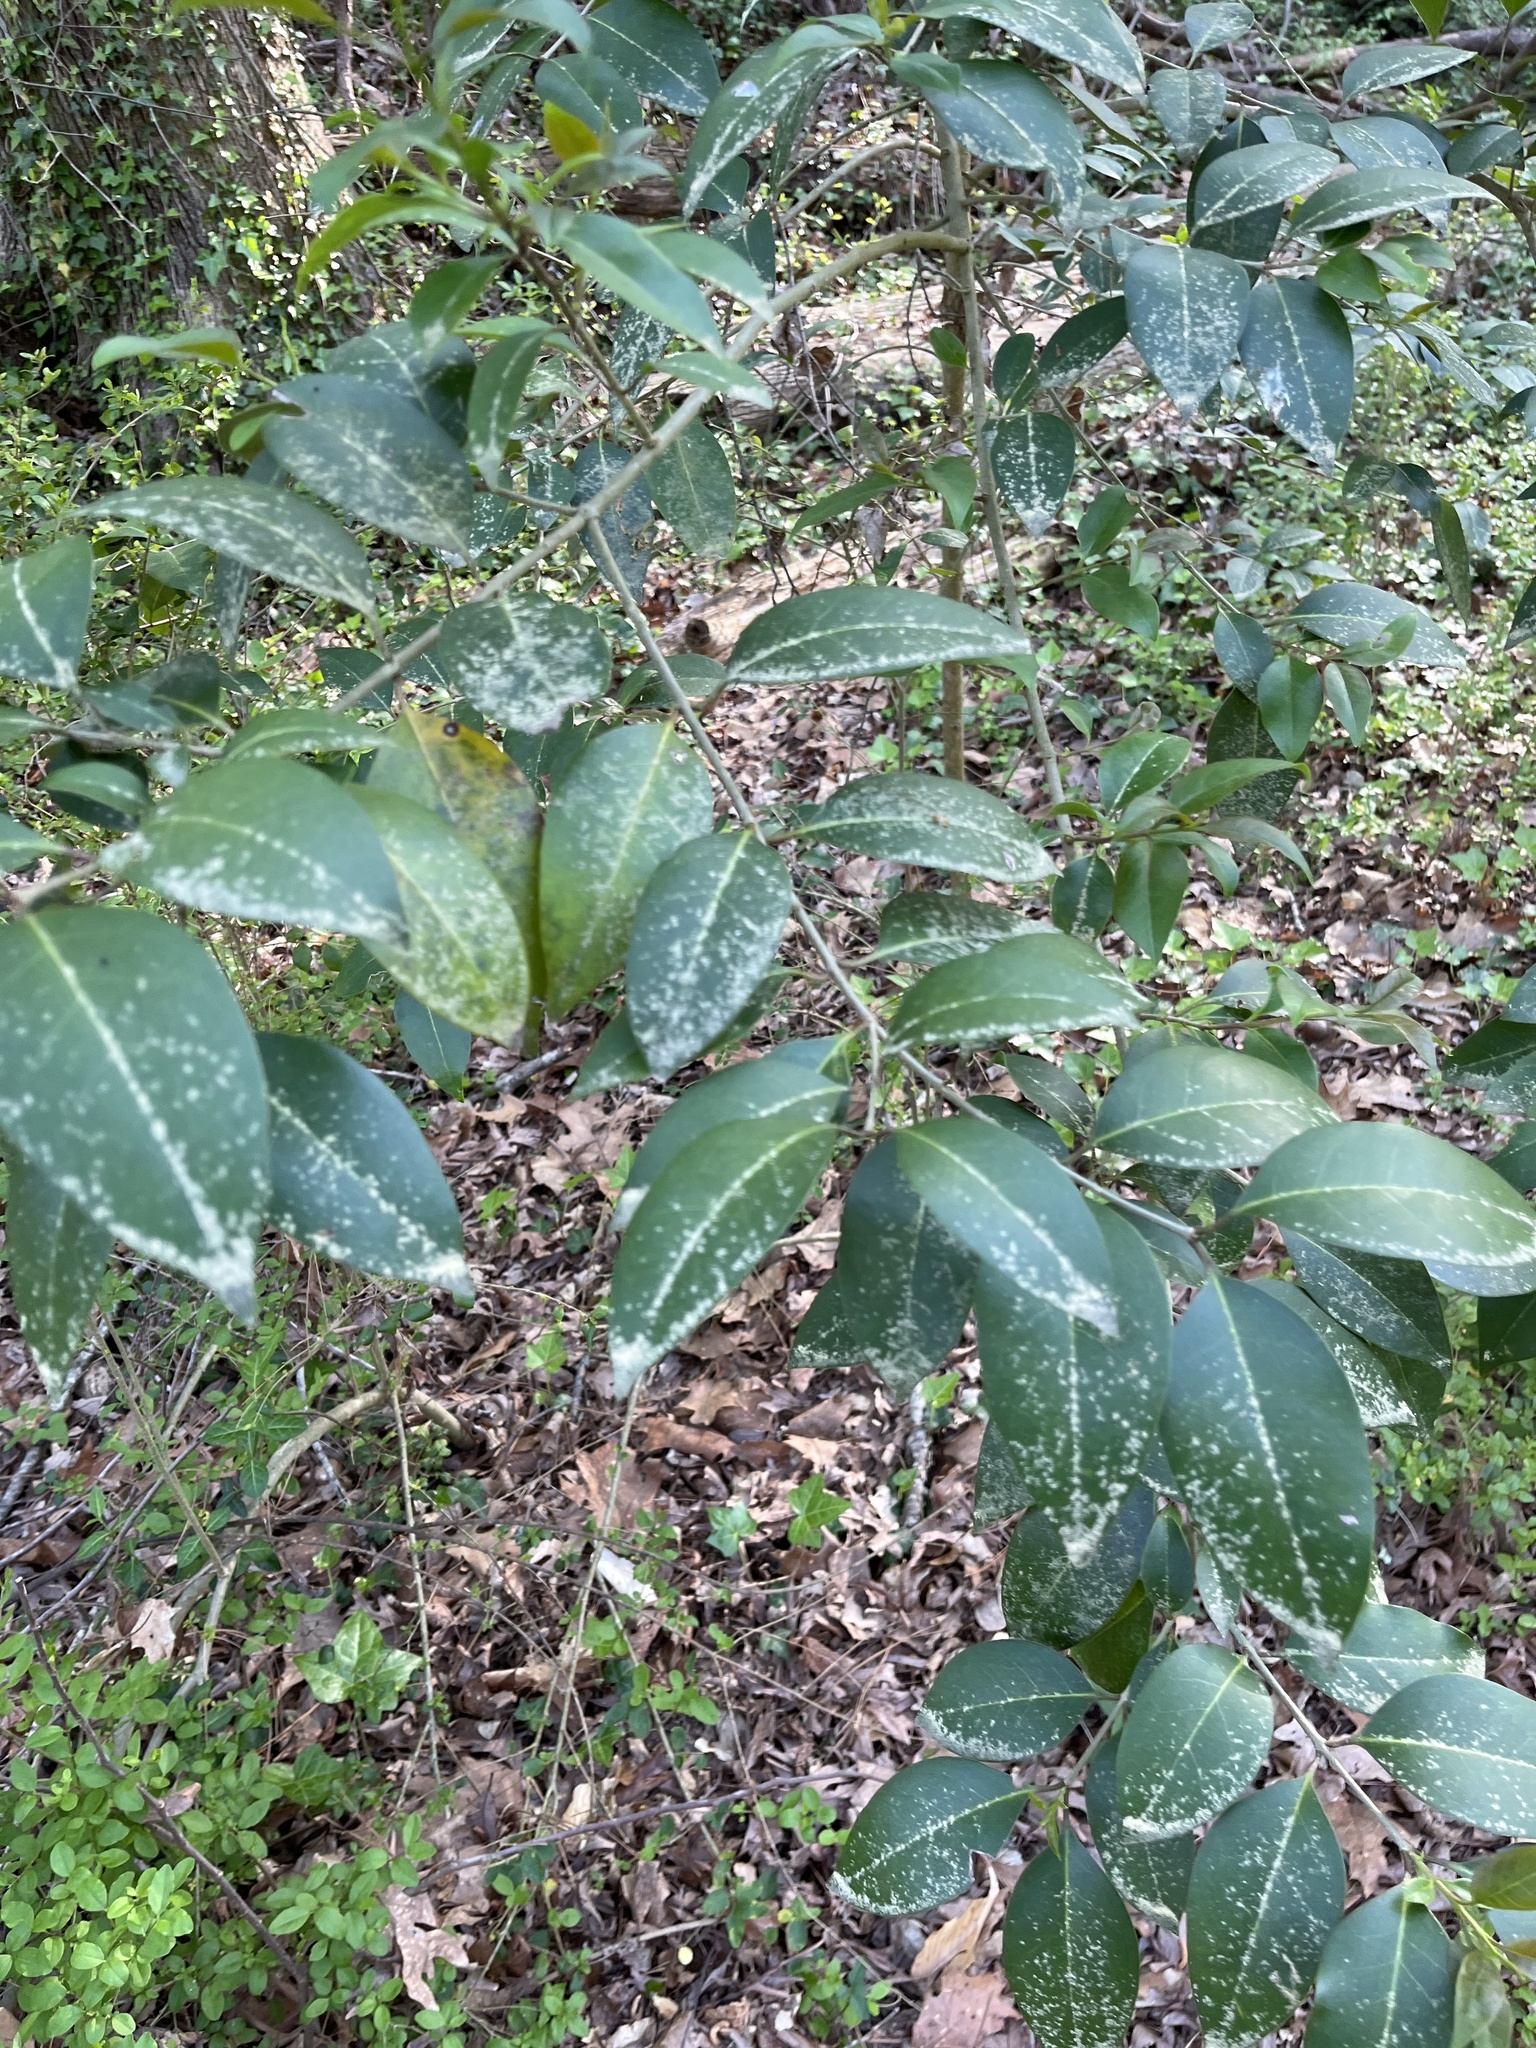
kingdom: Plantae
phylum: Tracheophyta
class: Magnoliopsida
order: Lamiales
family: Oleaceae
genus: Ligustrum
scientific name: Ligustrum lucidum
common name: Glossy privet
